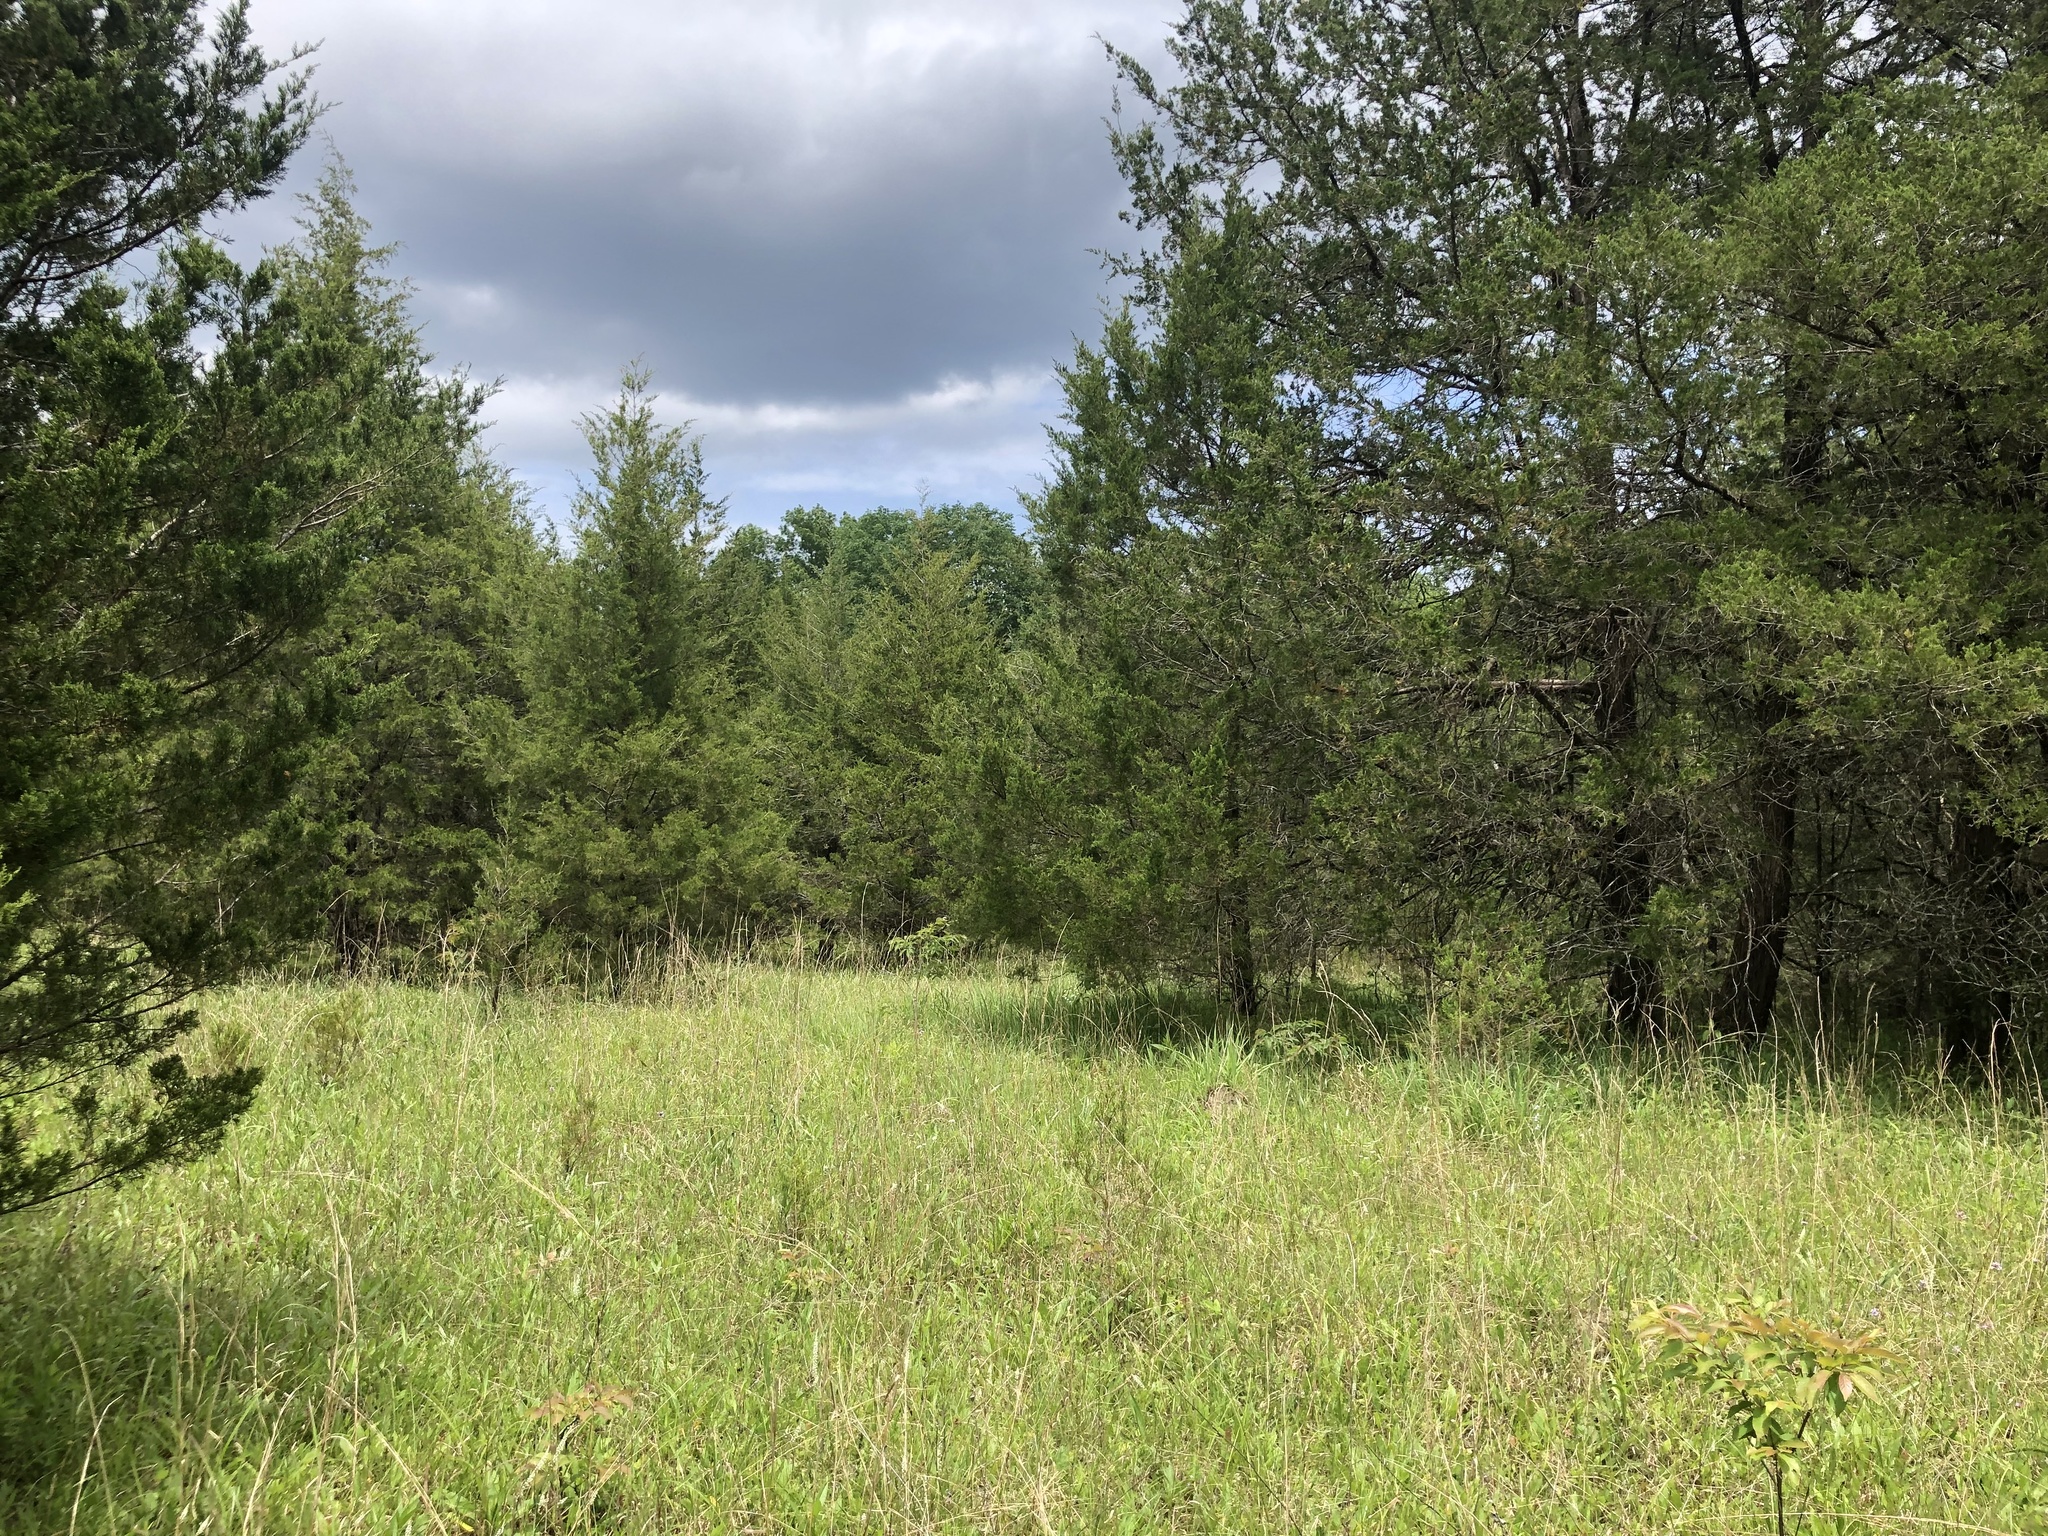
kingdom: Plantae
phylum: Tracheophyta
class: Pinopsida
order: Pinales
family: Cupressaceae
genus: Juniperus
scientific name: Juniperus virginiana
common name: Red juniper
